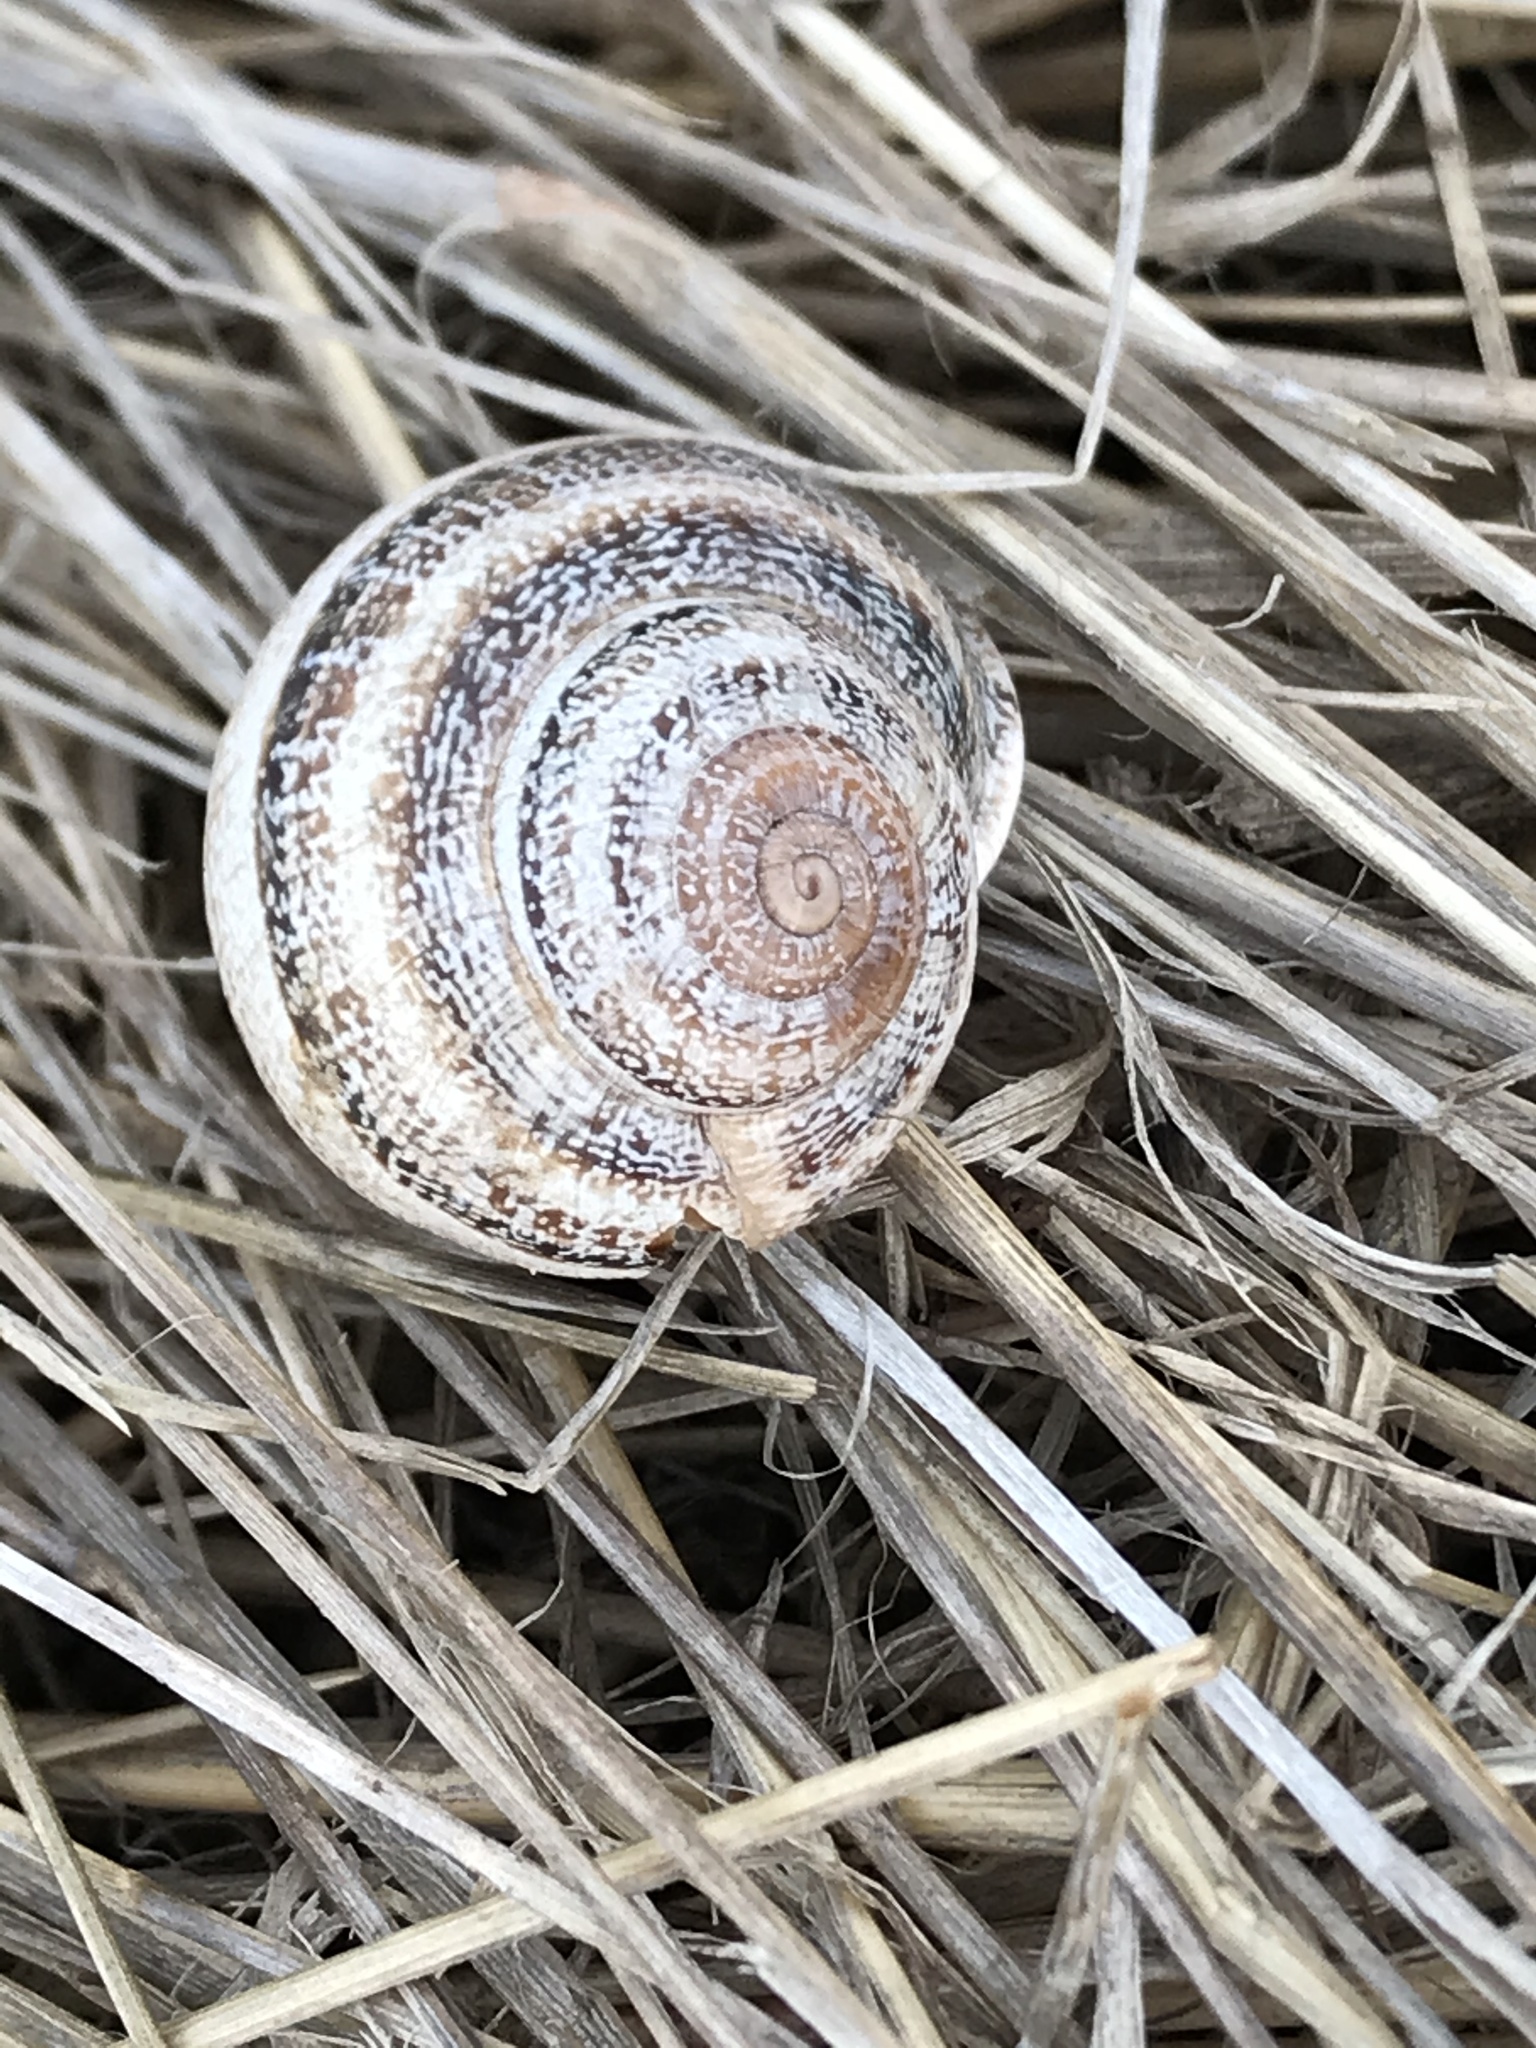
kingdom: Animalia
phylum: Mollusca
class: Gastropoda
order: Stylommatophora
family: Helicidae
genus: Otala
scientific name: Otala lactea
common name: Milk snail
